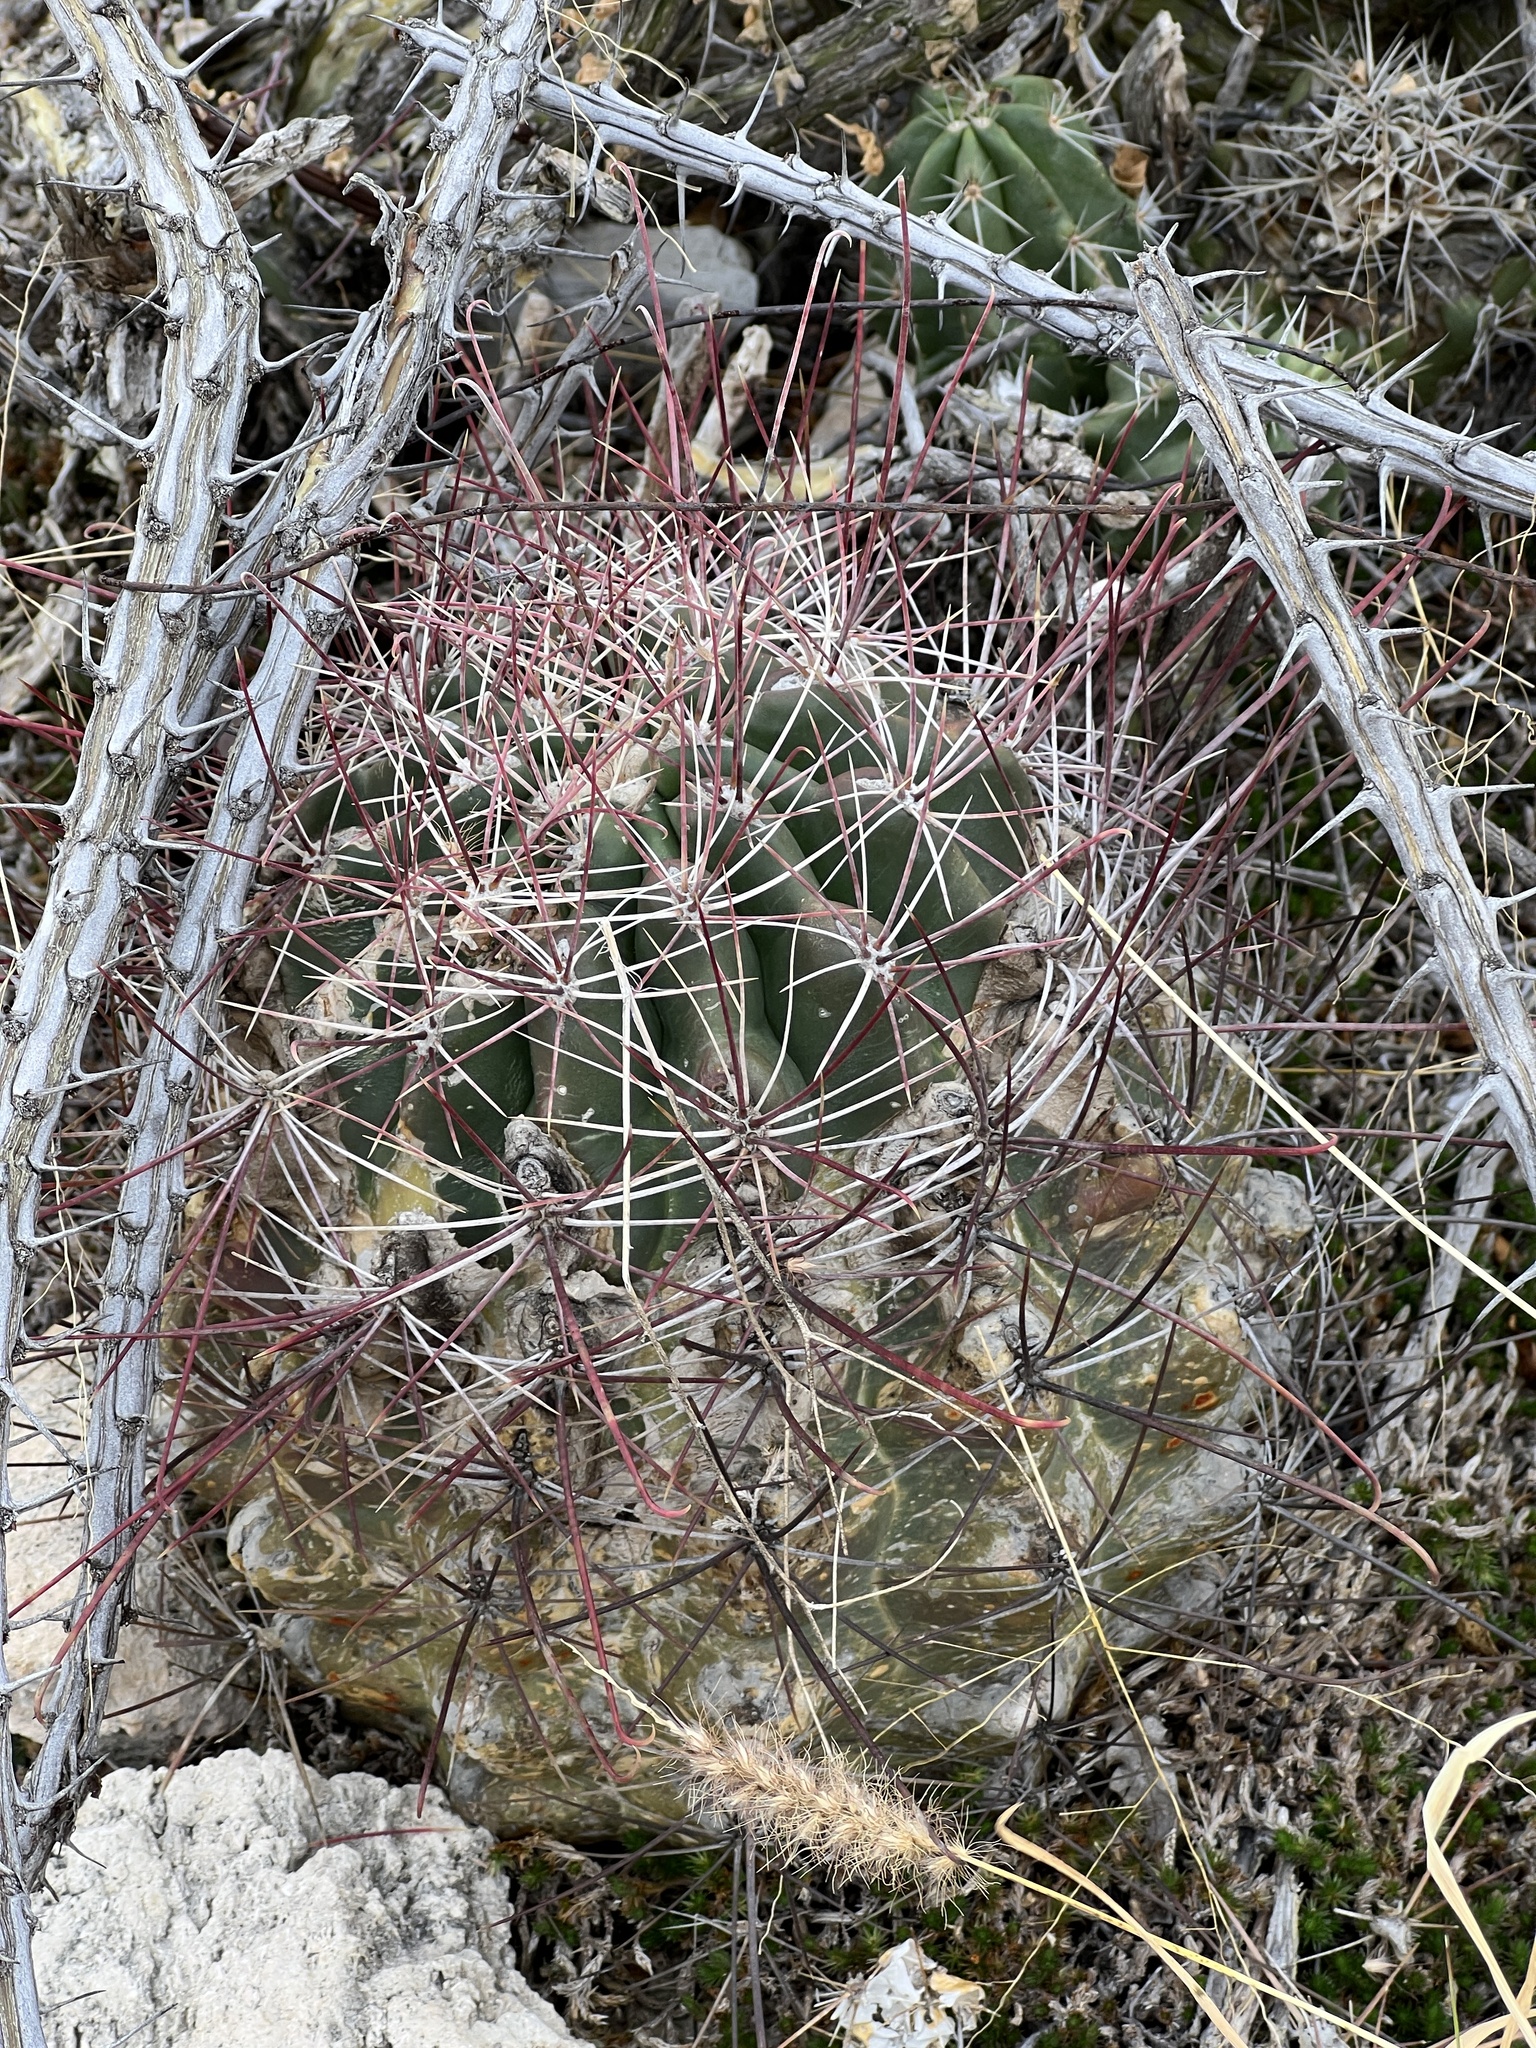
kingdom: Plantae
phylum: Tracheophyta
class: Magnoliopsida
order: Caryophyllales
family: Cactaceae
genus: Bisnaga
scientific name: Bisnaga hamatacantha
